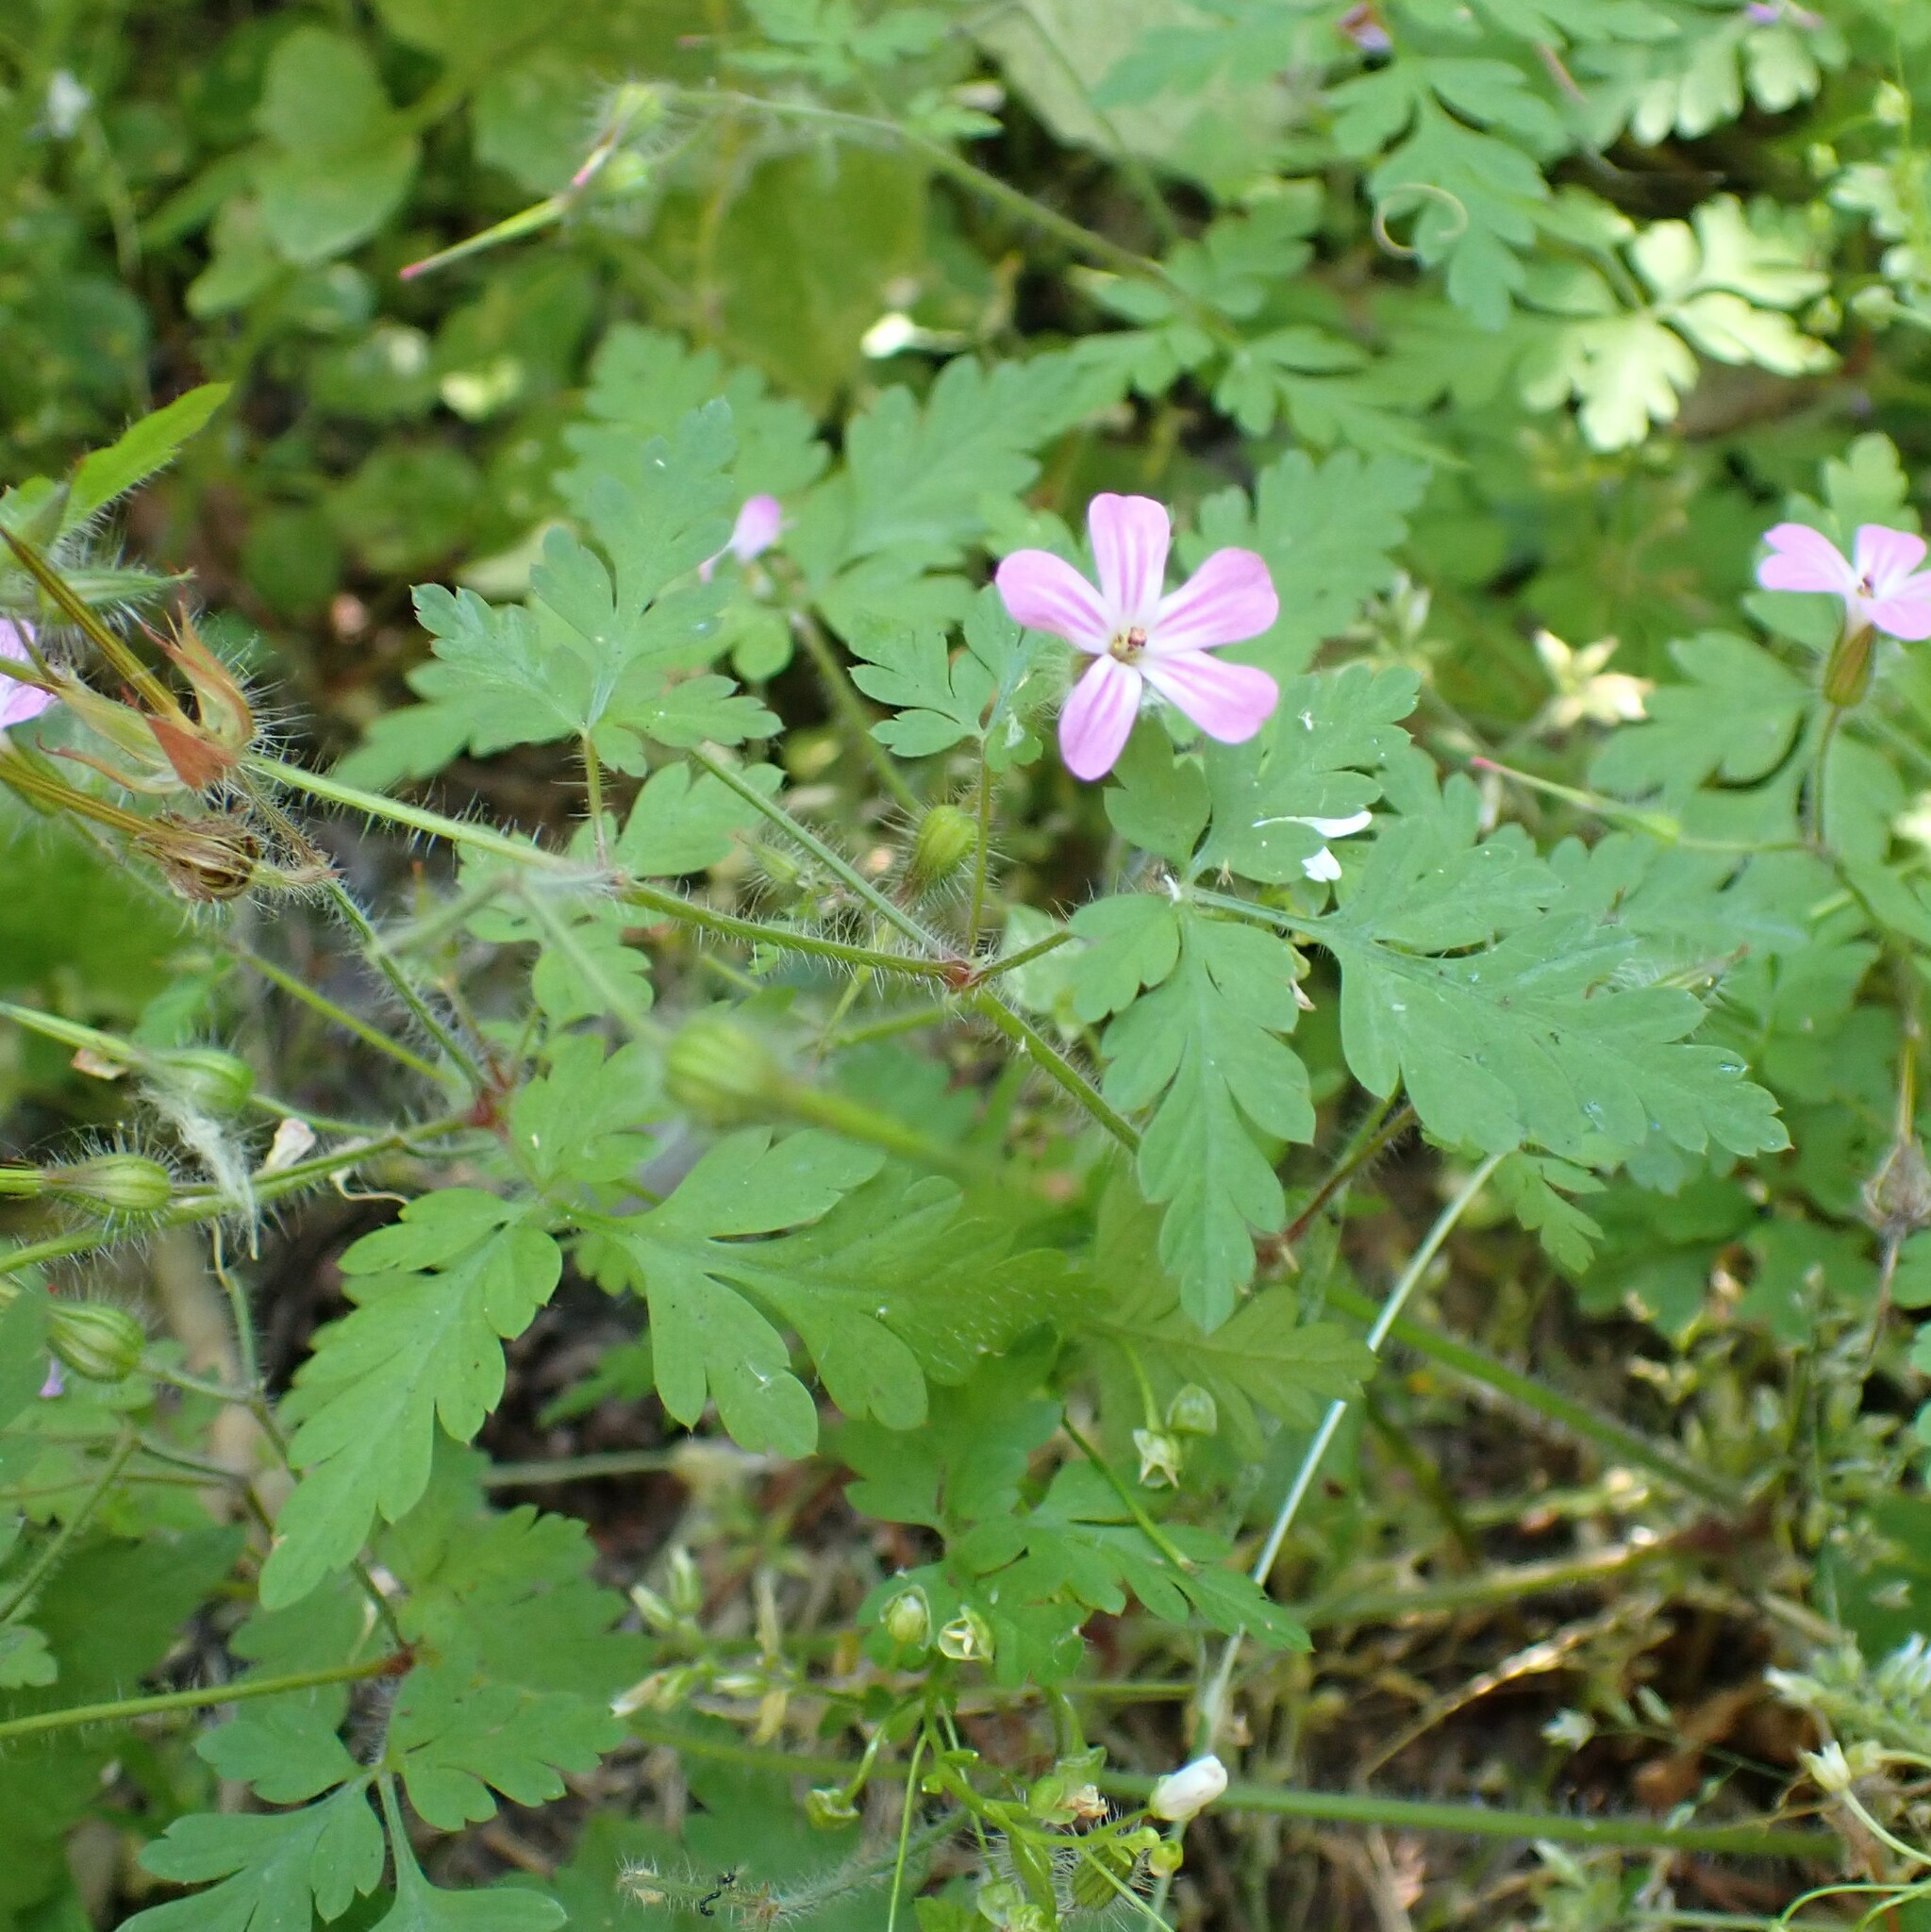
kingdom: Plantae
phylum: Tracheophyta
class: Magnoliopsida
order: Geraniales
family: Geraniaceae
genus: Geranium
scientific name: Geranium robertianum
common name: Herb-robert
